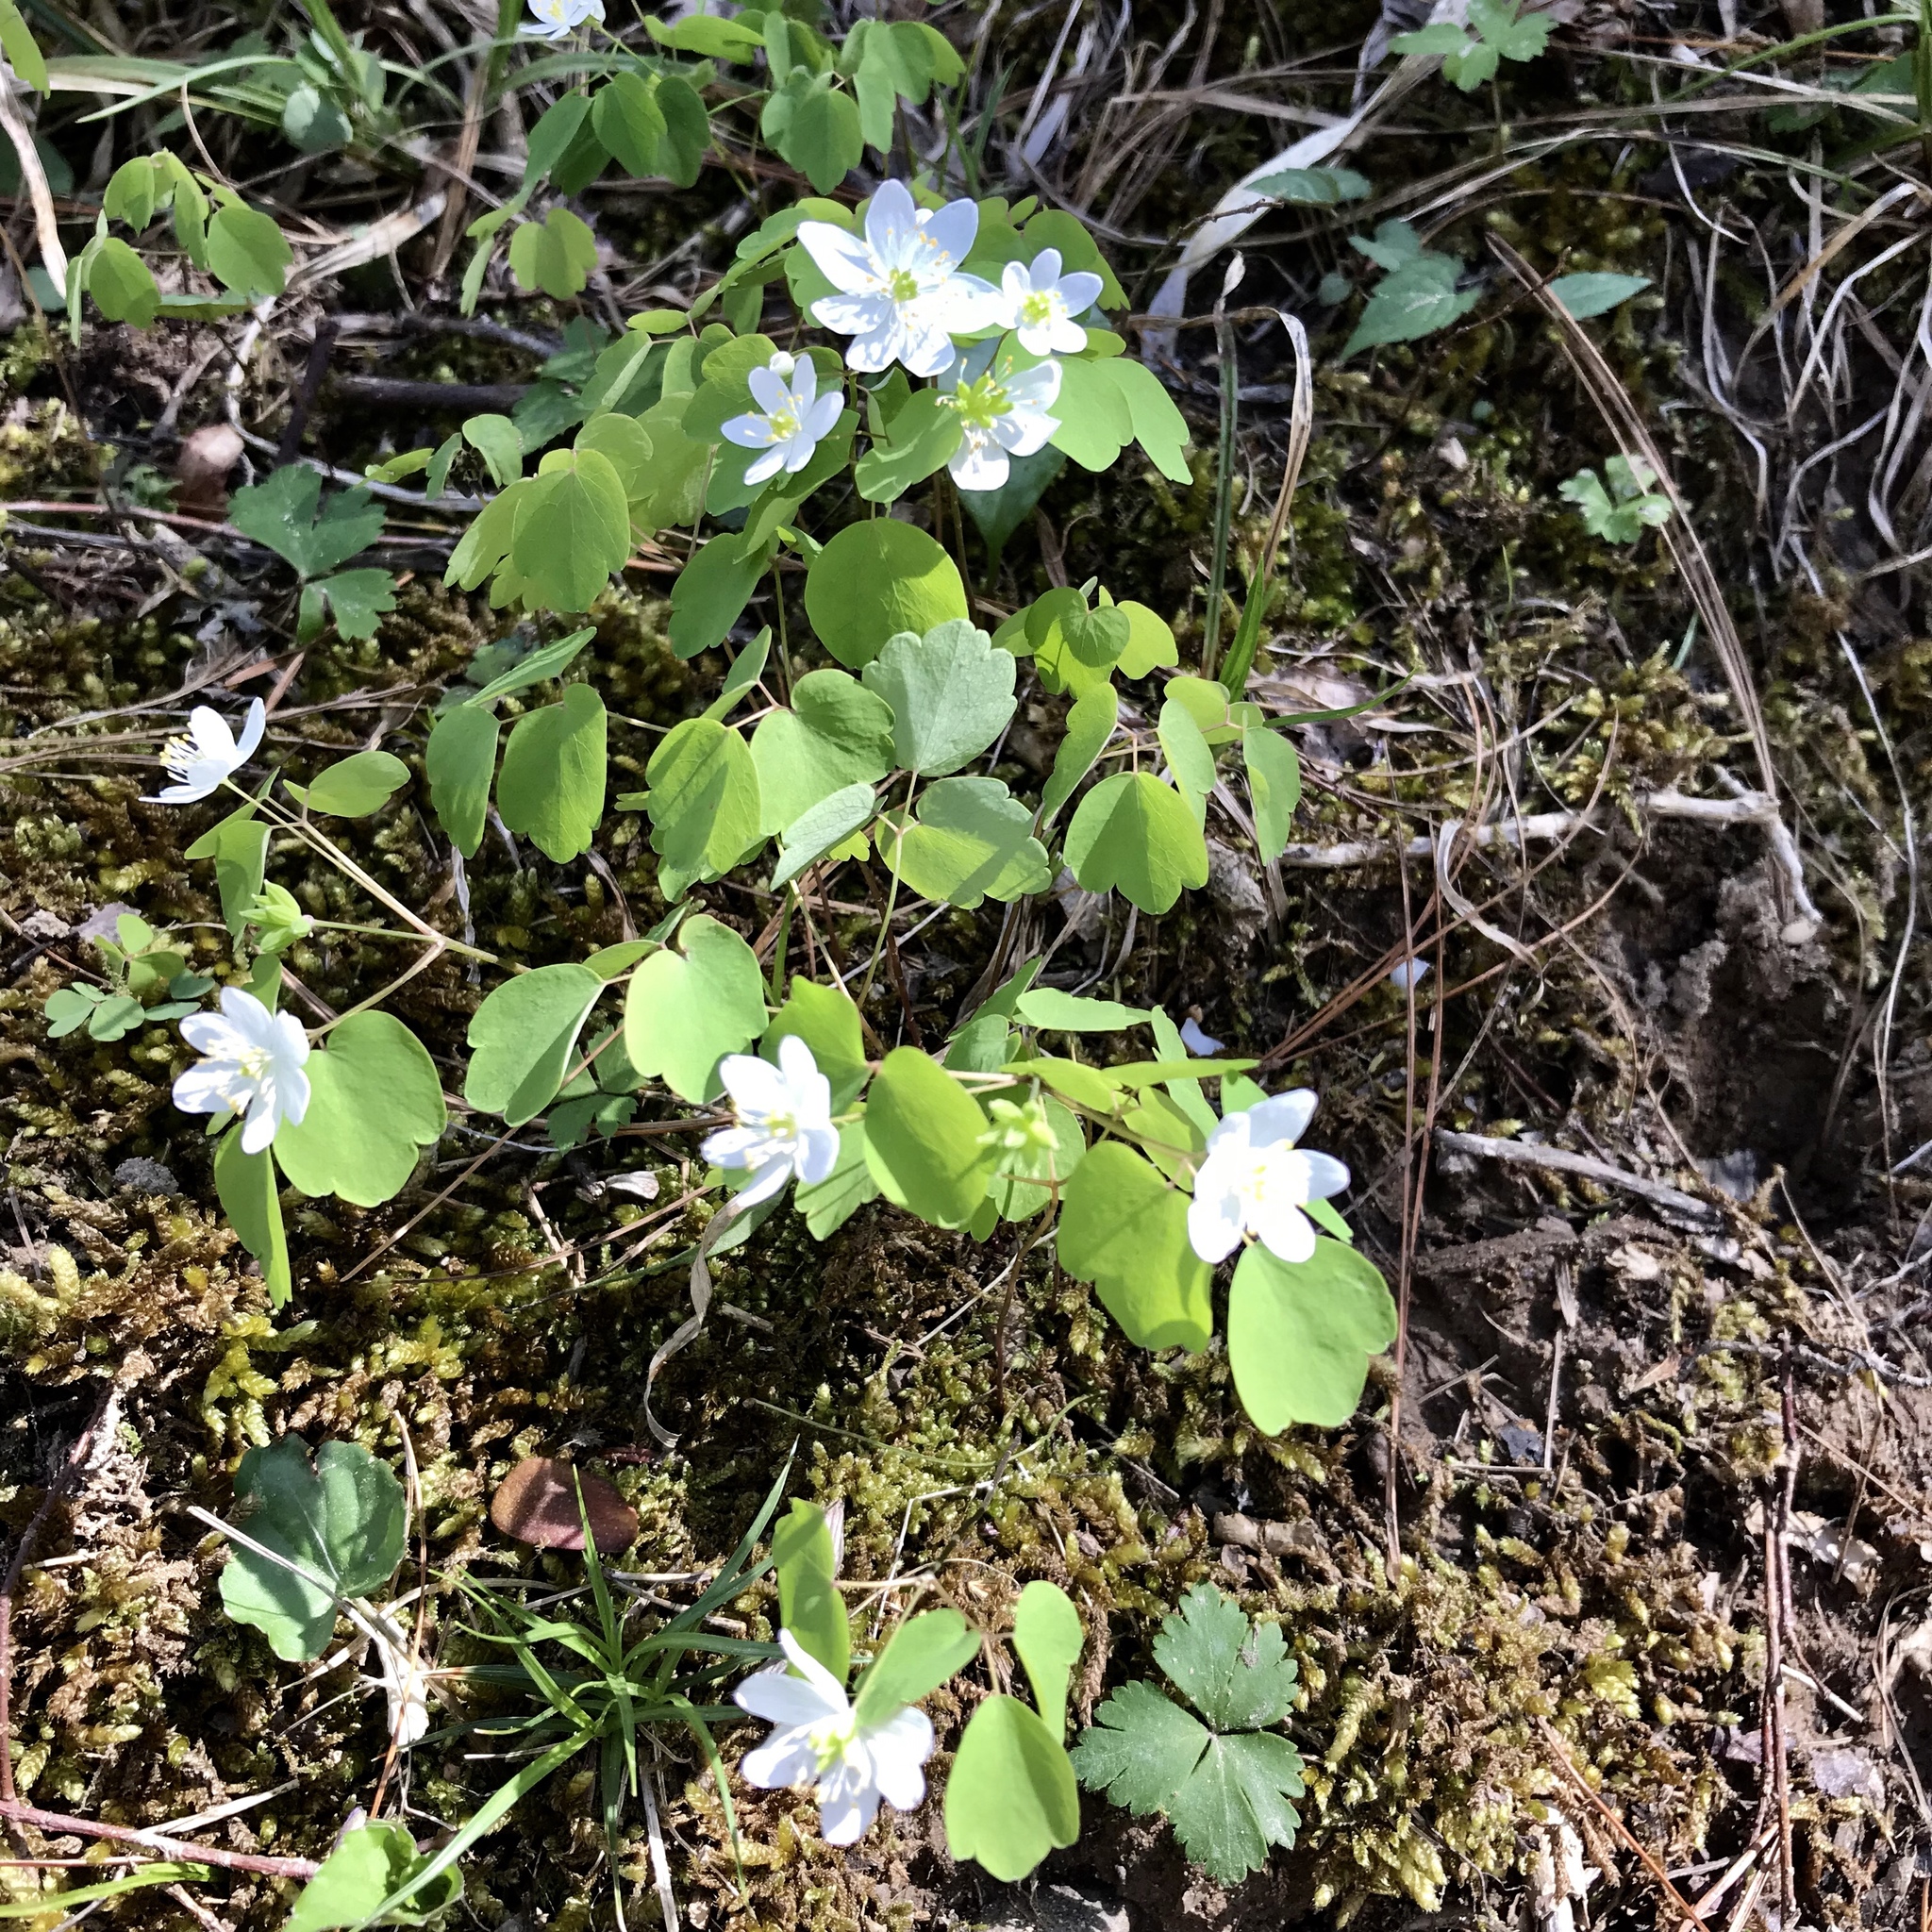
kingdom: Plantae
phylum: Tracheophyta
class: Magnoliopsida
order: Ranunculales
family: Ranunculaceae
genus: Thalictrum
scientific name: Thalictrum thalictroides
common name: Rue-anemone
